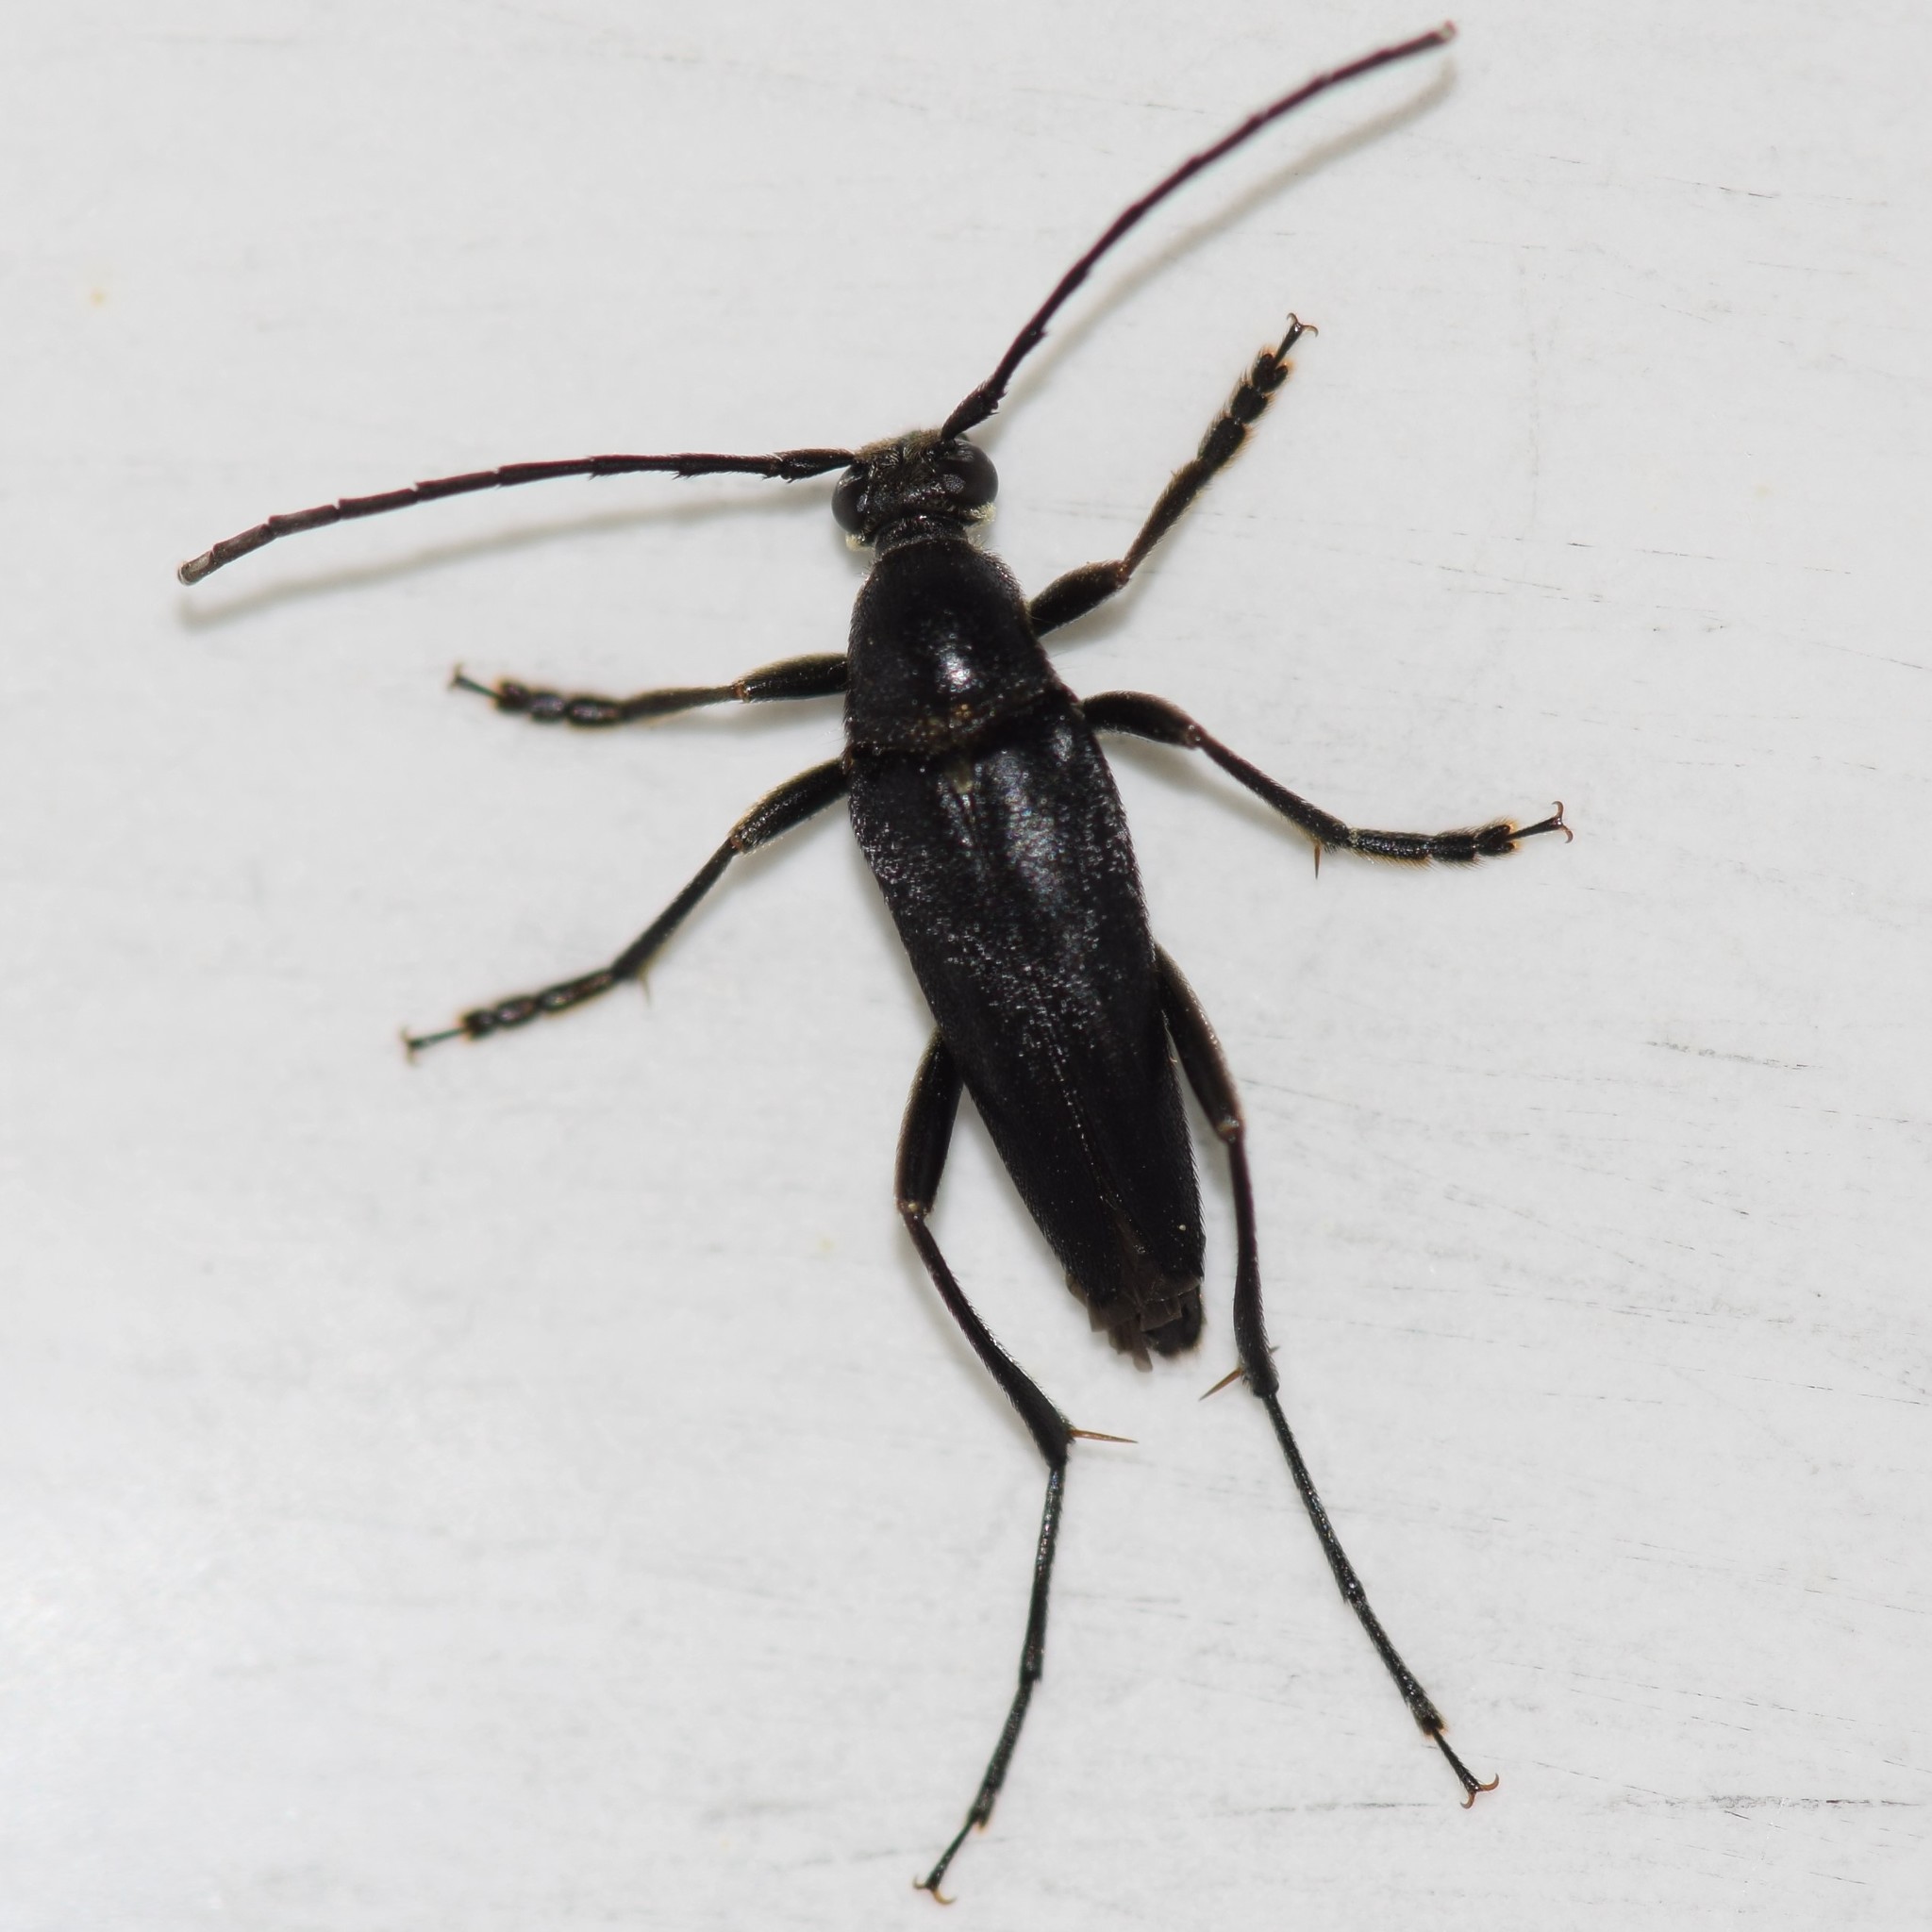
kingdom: Animalia
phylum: Arthropoda
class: Insecta
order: Coleoptera
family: Cerambycidae
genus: Typocerus
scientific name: Typocerus lugubris
